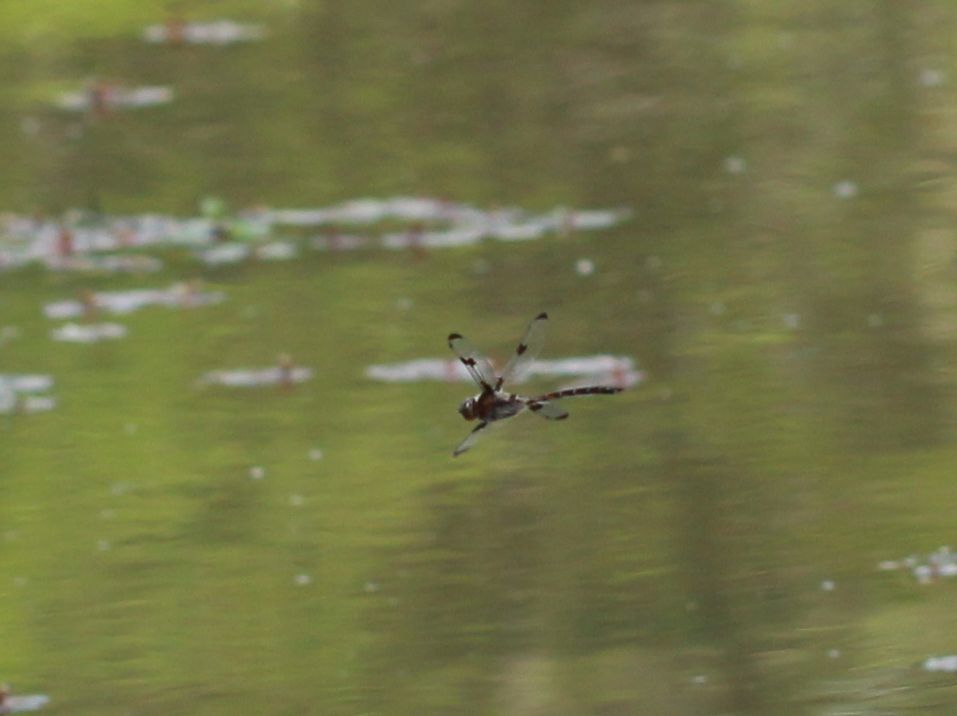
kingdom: Animalia
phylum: Arthropoda
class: Insecta
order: Odonata
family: Corduliidae
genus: Epitheca
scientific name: Epitheca princeps
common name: Prince baskettail
